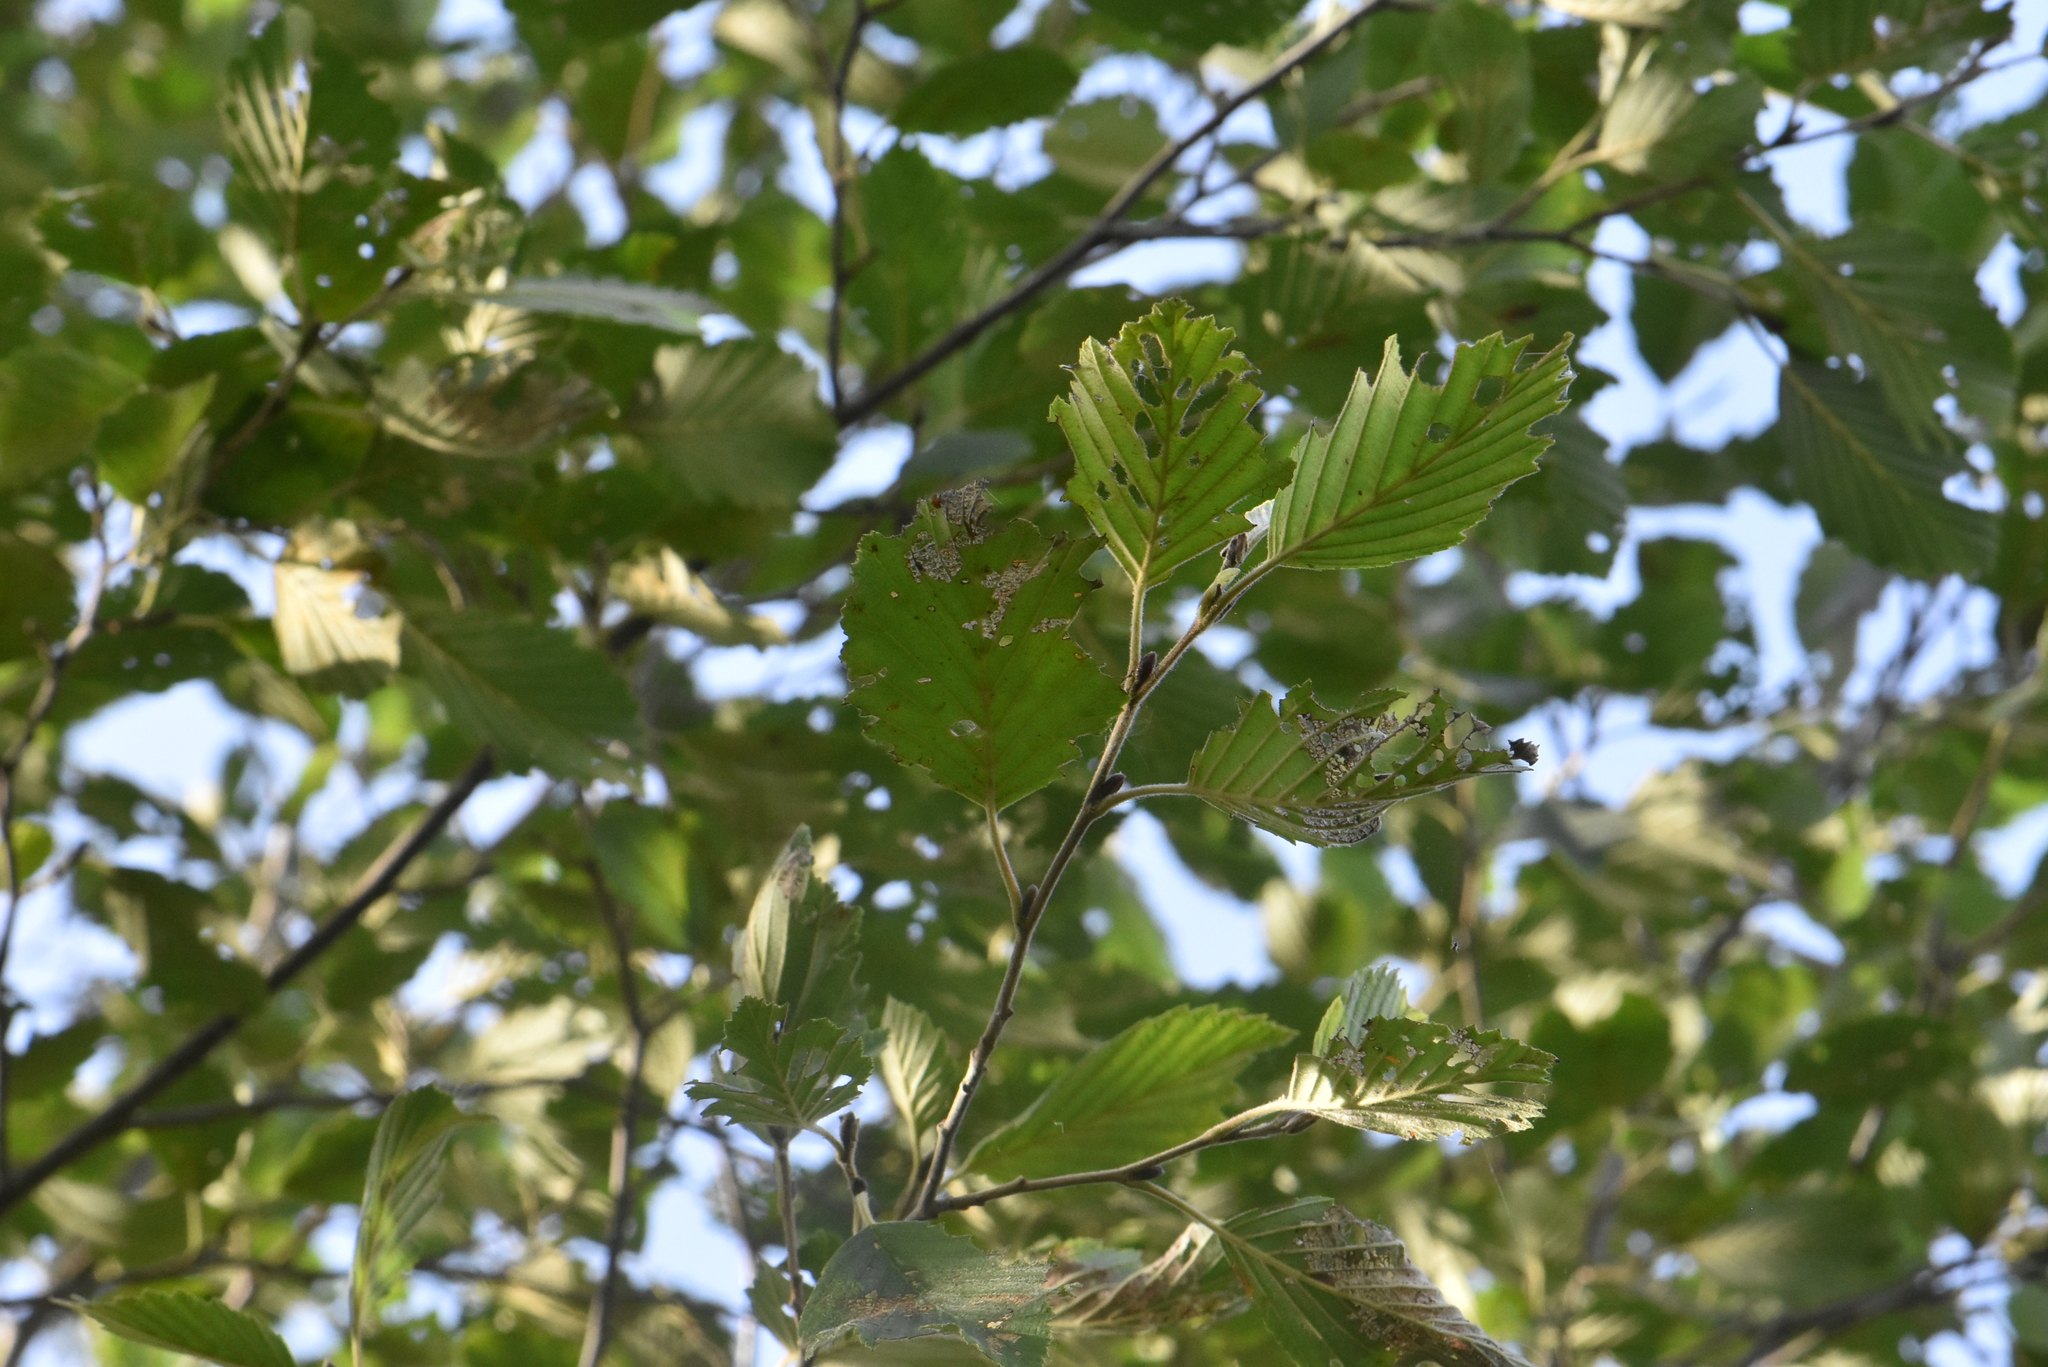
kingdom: Plantae
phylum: Tracheophyta
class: Magnoliopsida
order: Fagales
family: Betulaceae
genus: Alnus
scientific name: Alnus incana
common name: Grey alder
